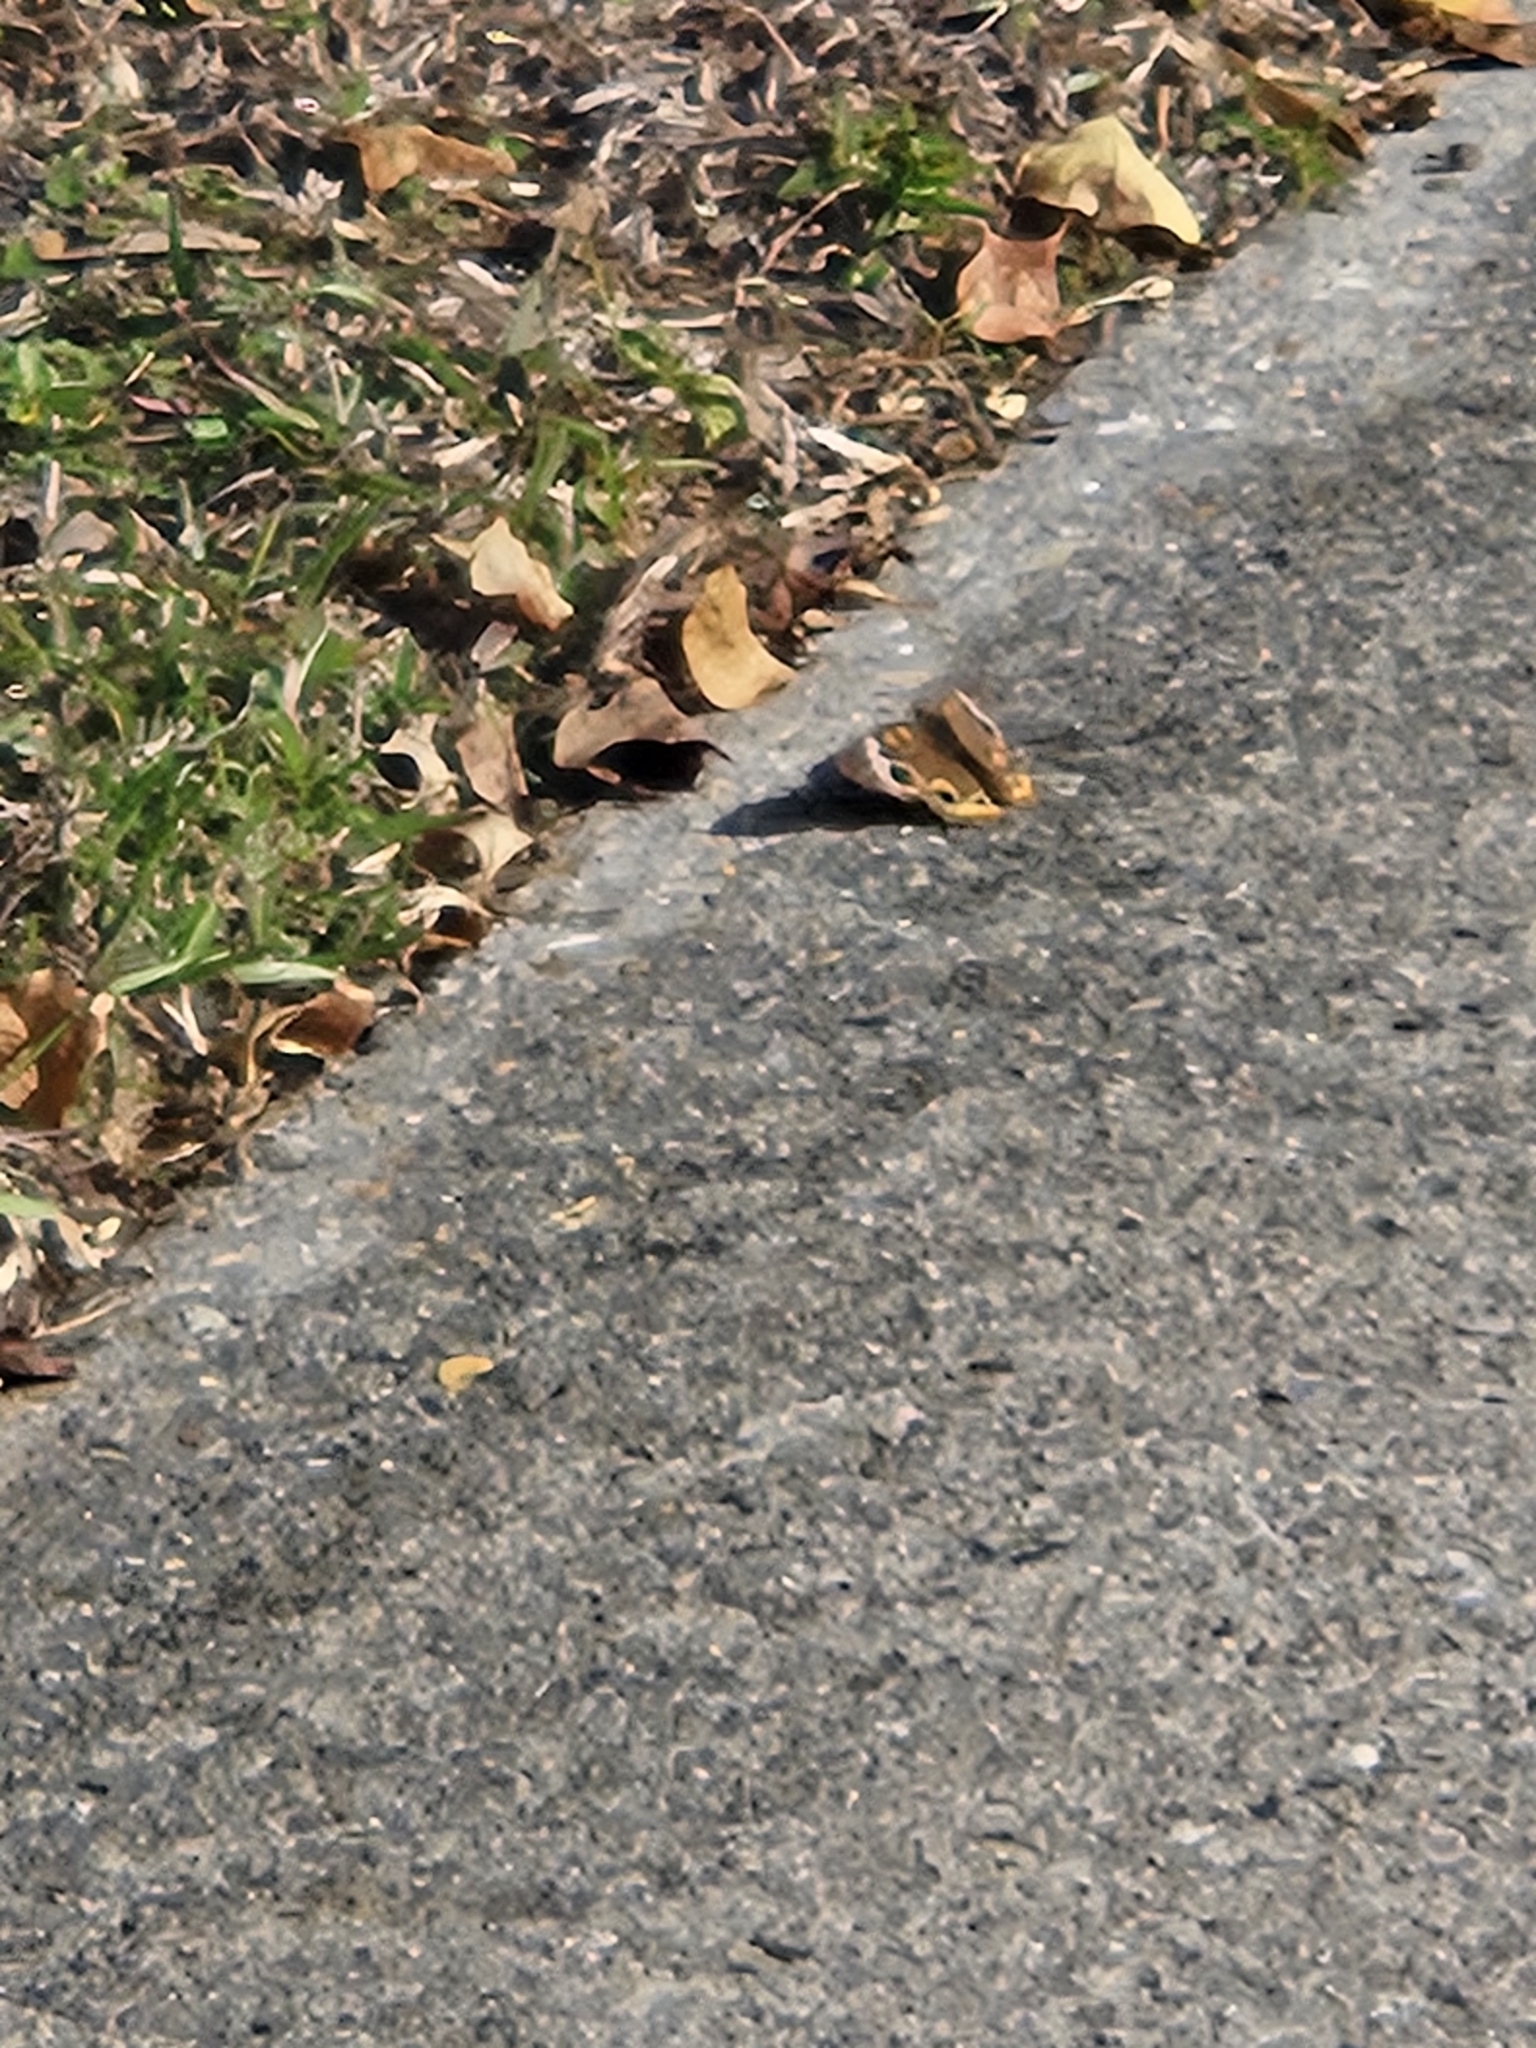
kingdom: Animalia
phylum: Arthropoda
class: Insecta
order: Lepidoptera
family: Nymphalidae
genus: Junonia
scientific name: Junonia coenia
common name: Common buckeye
